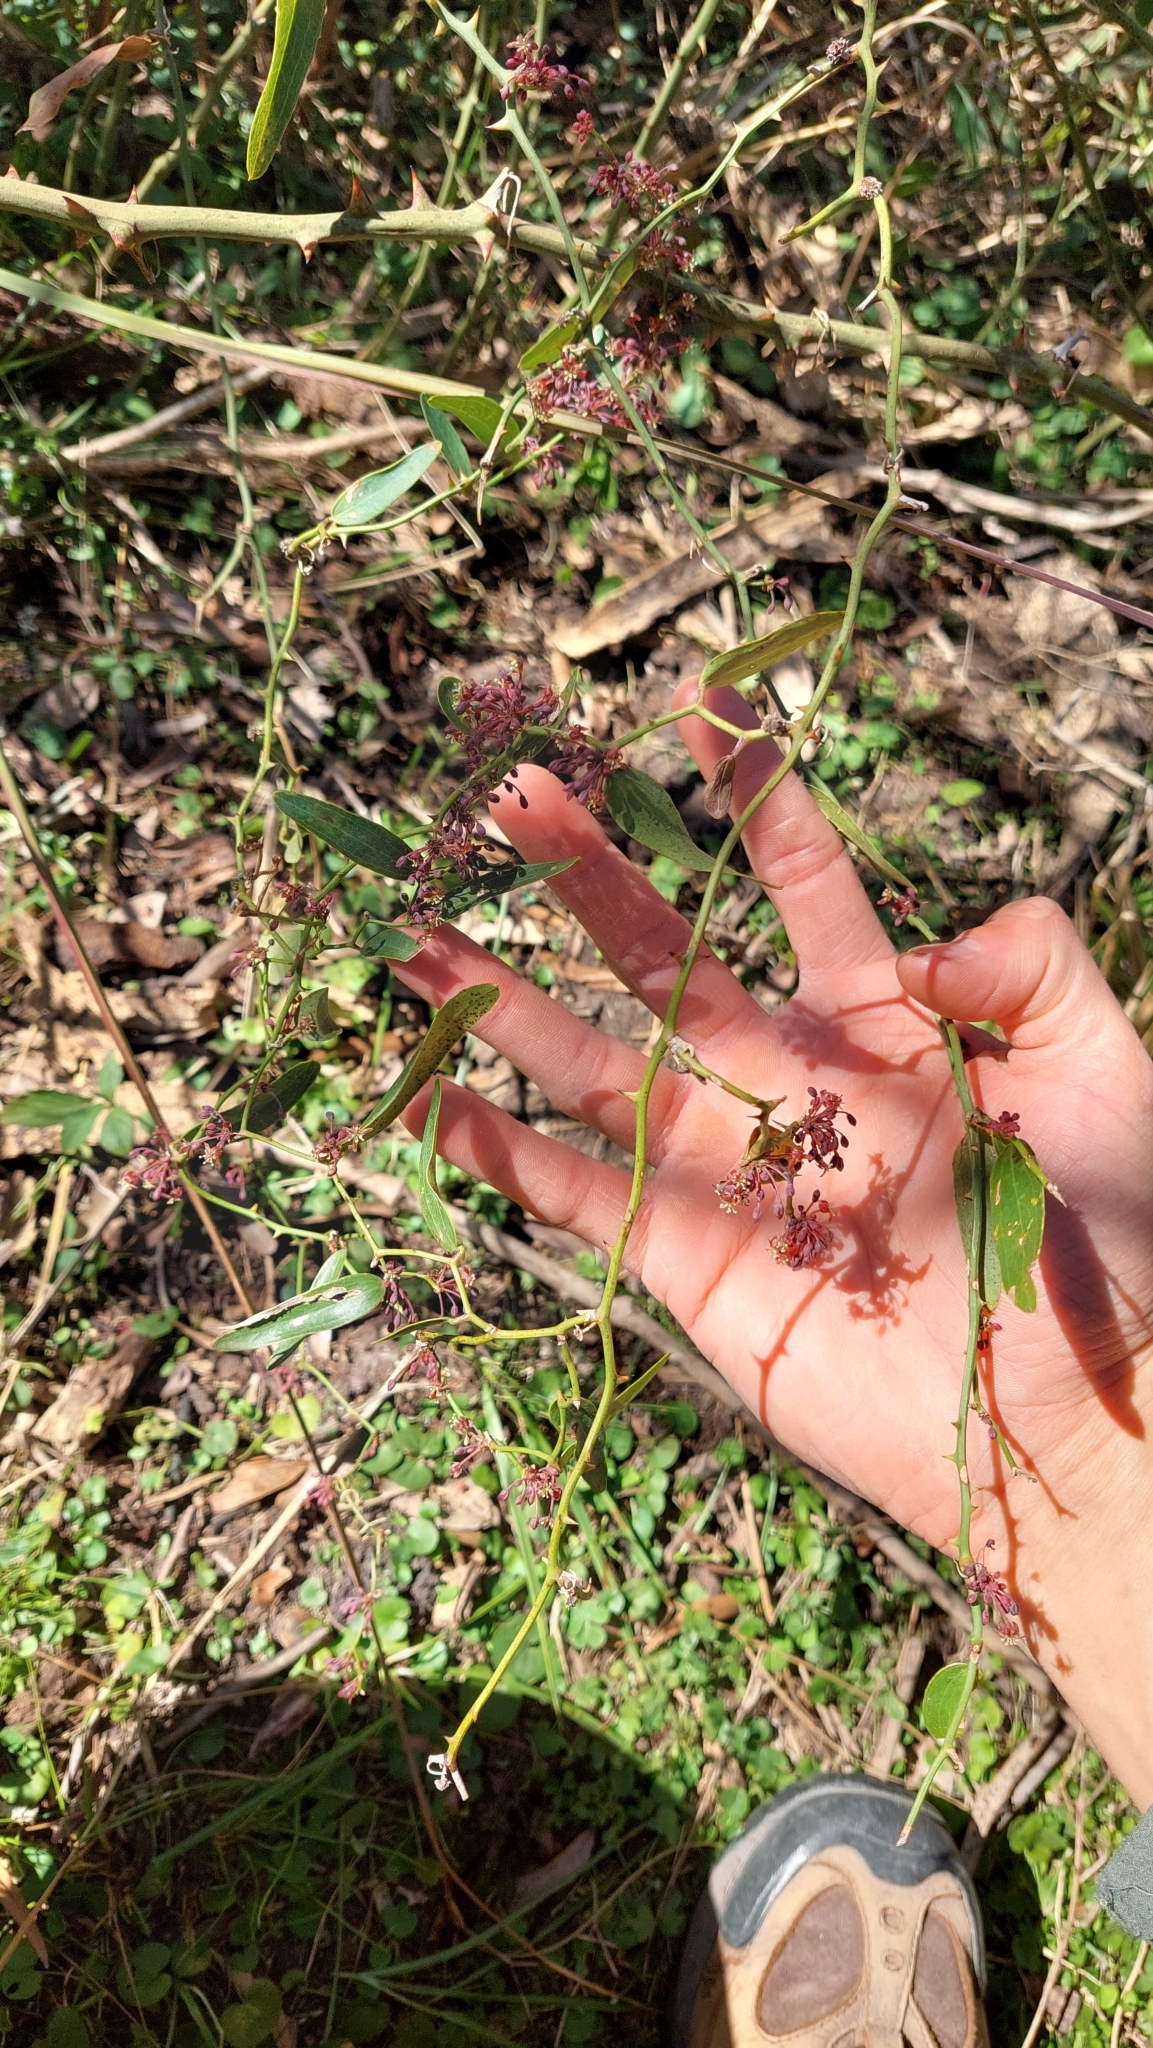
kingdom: Plantae
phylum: Tracheophyta
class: Liliopsida
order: Liliales
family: Smilacaceae
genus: Smilax
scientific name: Smilax campestris
